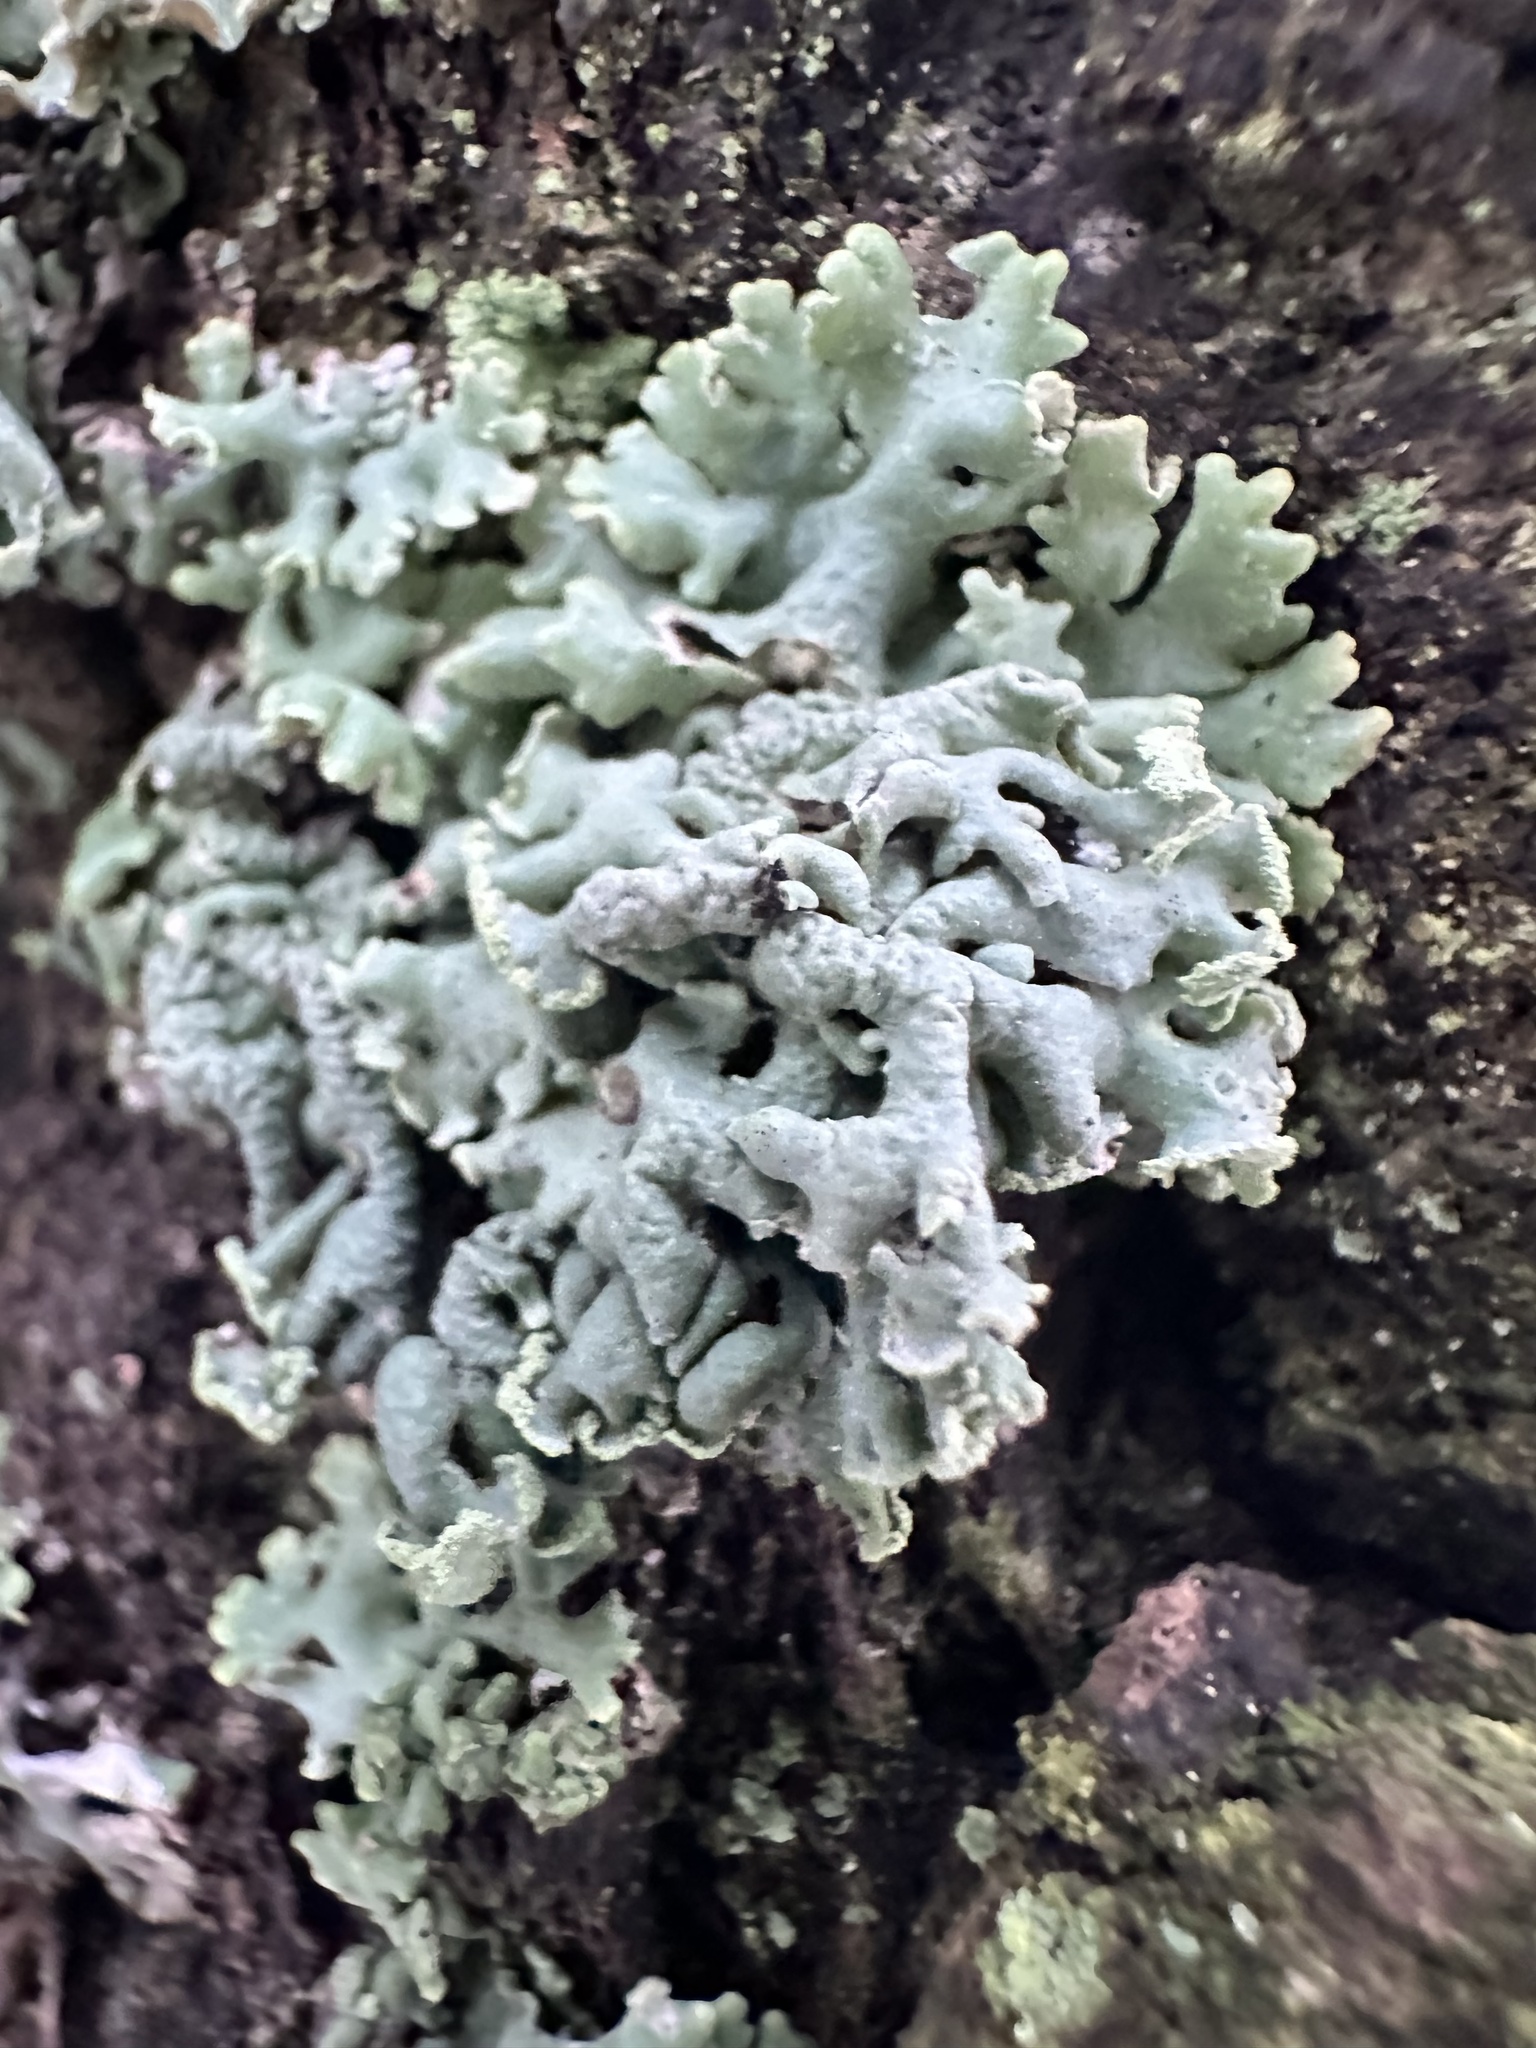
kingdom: Fungi
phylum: Ascomycota
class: Lecanoromycetes
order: Lecanorales
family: Parmeliaceae
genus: Hypogymnia
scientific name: Hypogymnia physodes
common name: Dark crottle
